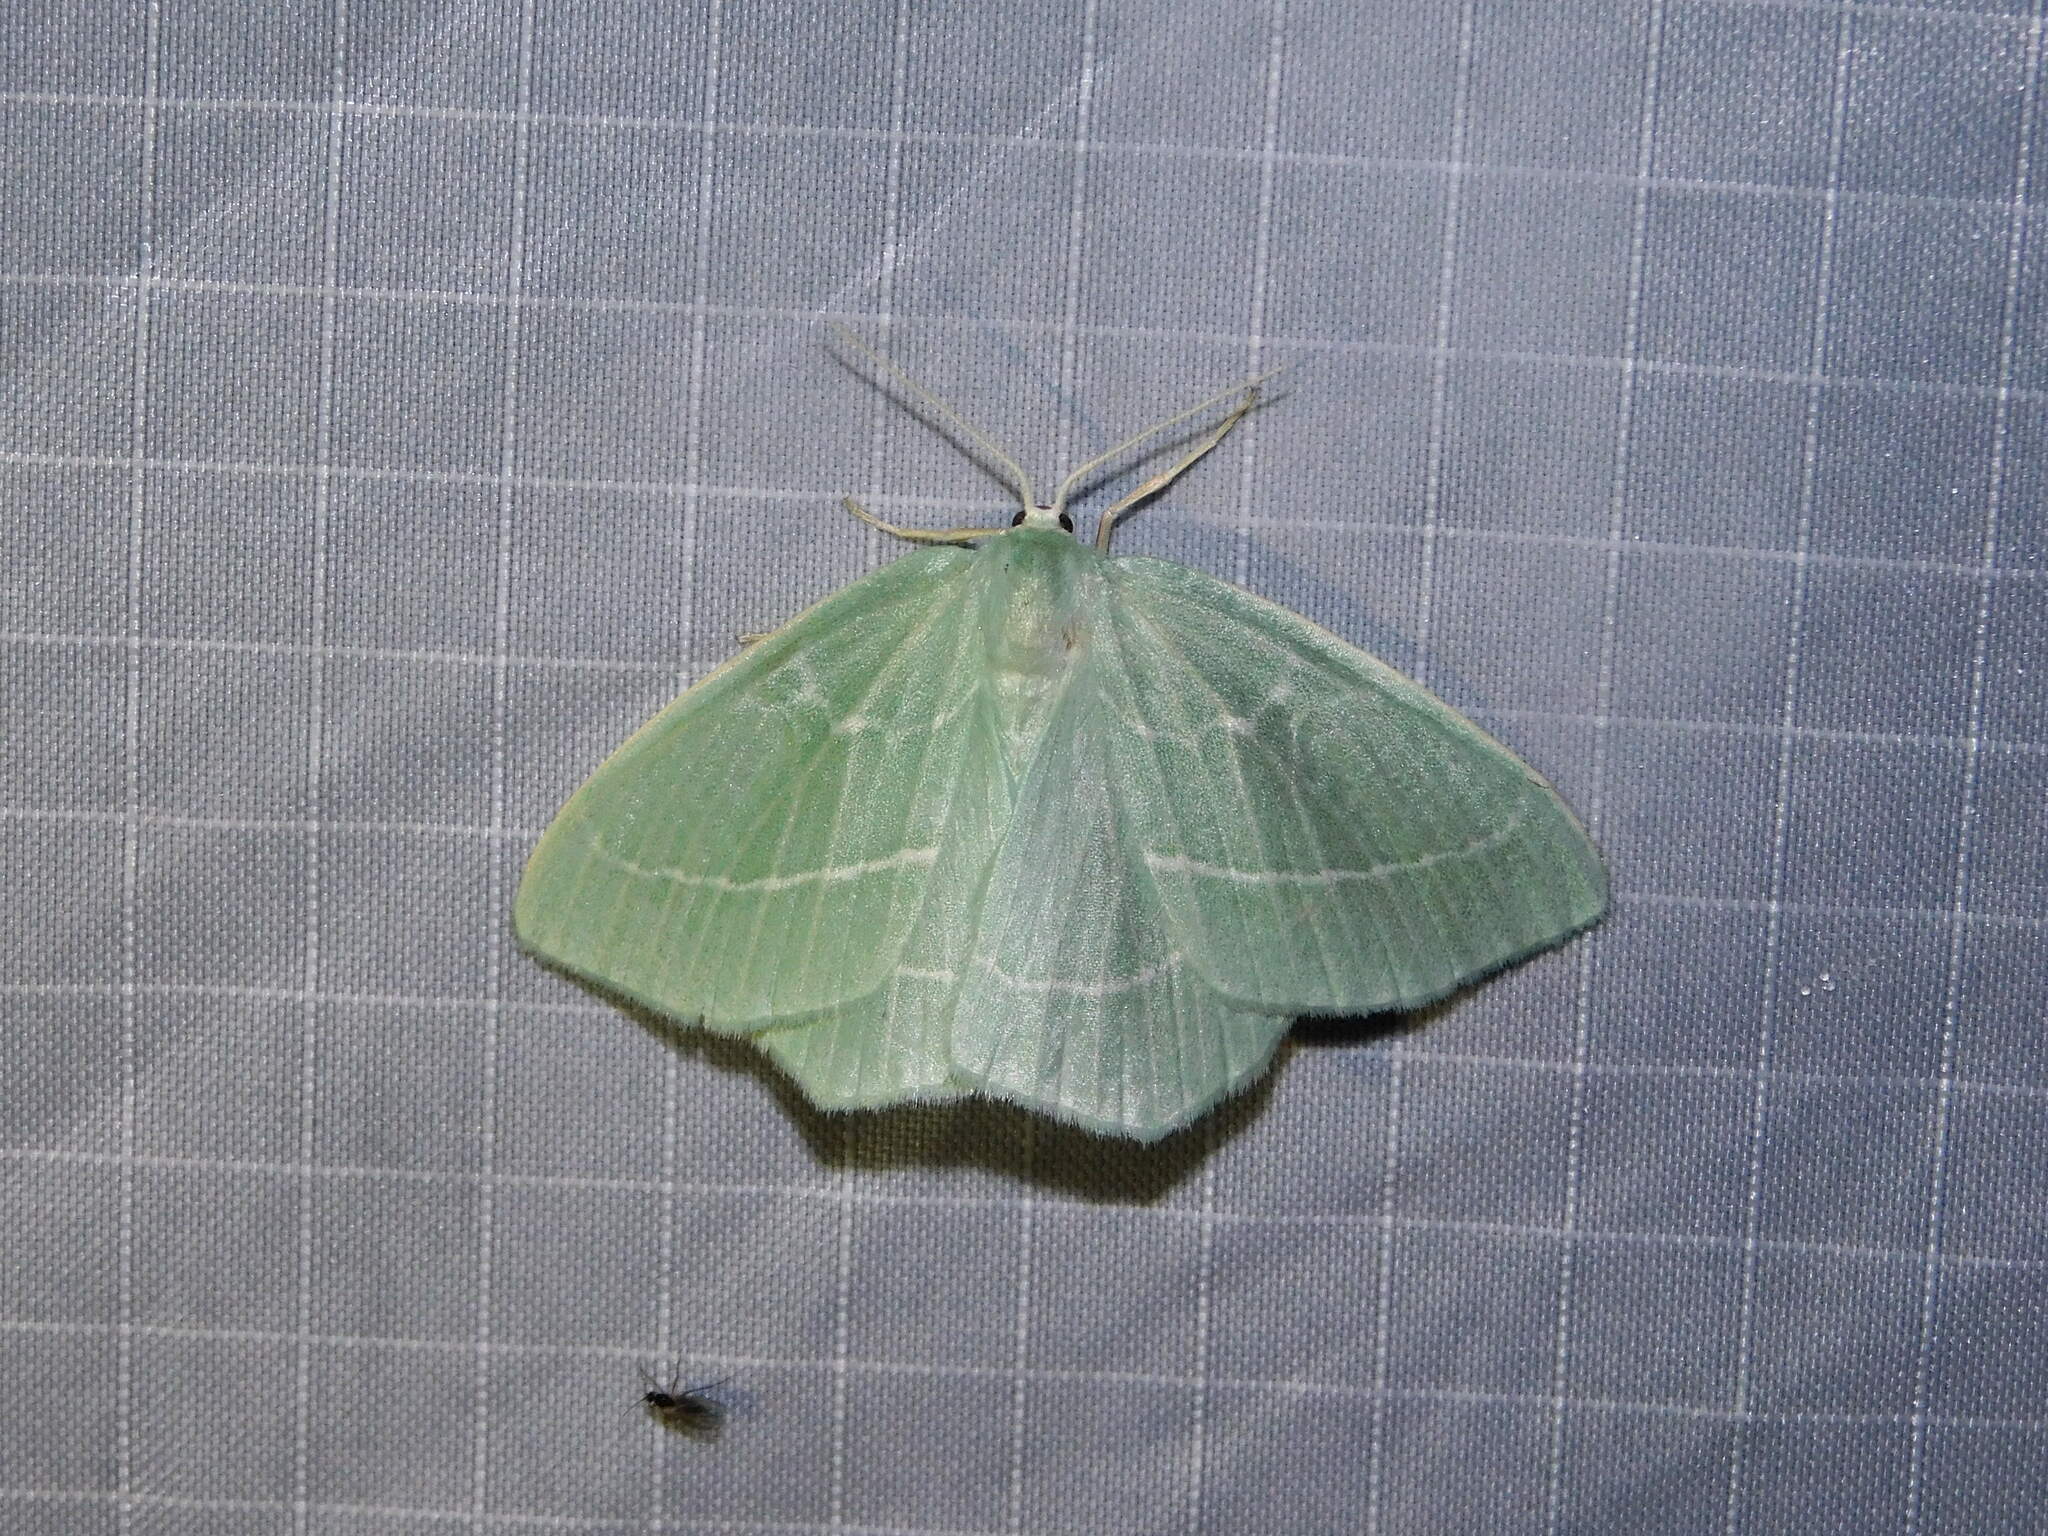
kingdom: Animalia
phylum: Arthropoda
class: Insecta
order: Lepidoptera
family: Geometridae
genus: Hemistola
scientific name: Hemistola chrysoprasaria
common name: Small emerald
